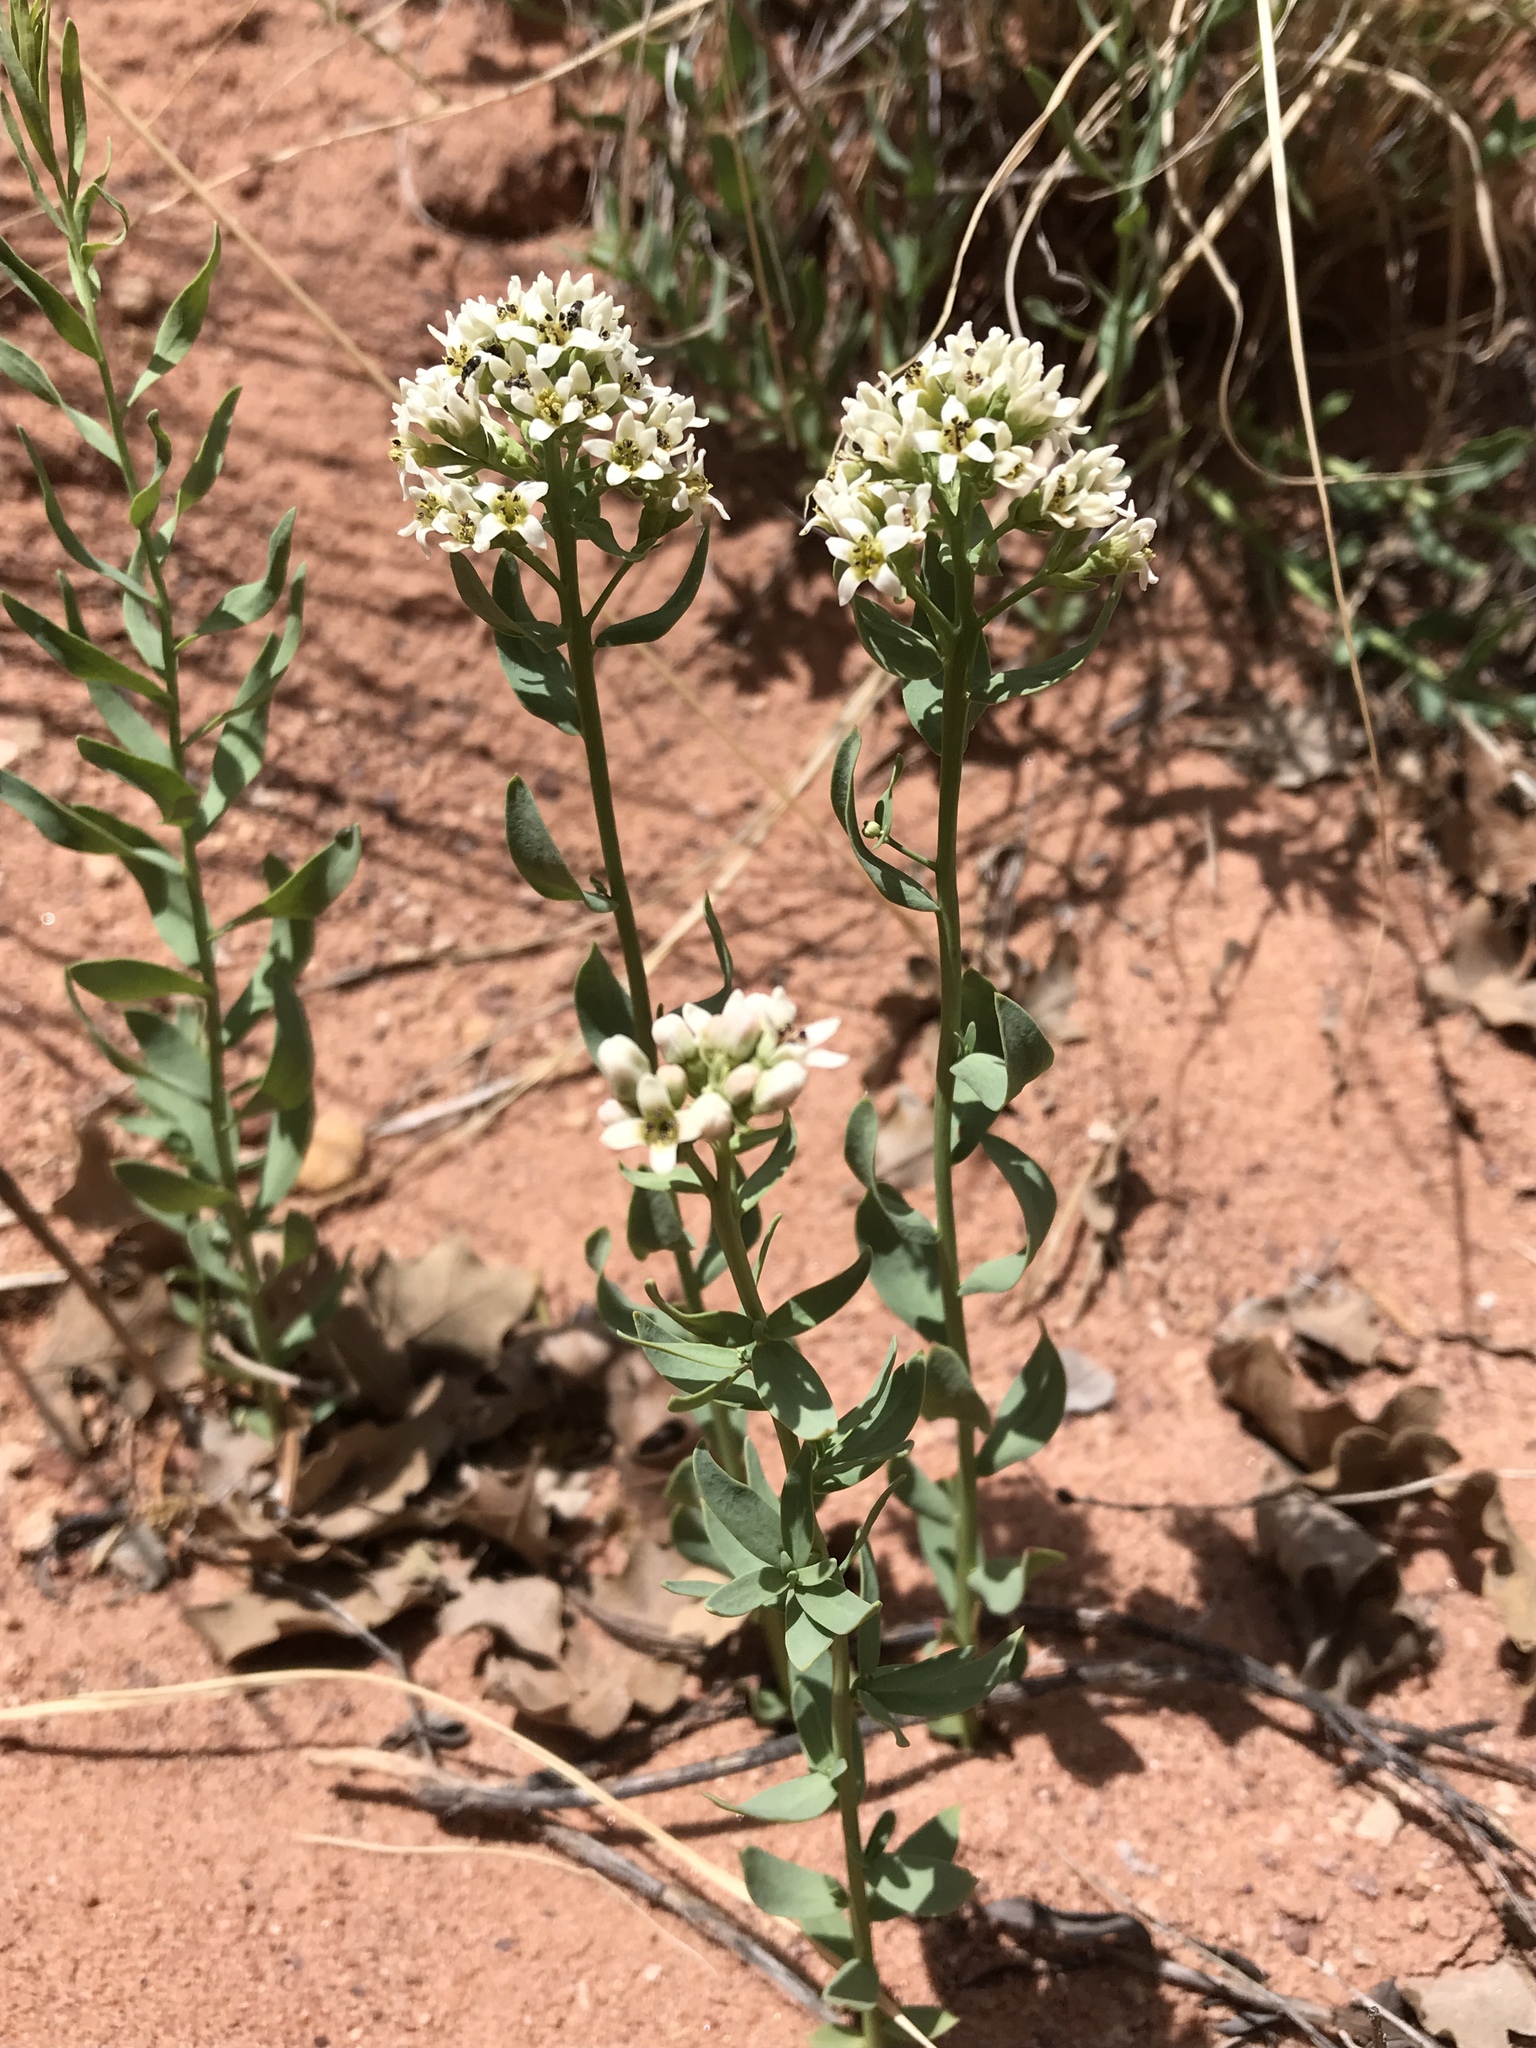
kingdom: Plantae
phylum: Tracheophyta
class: Magnoliopsida
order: Santalales
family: Comandraceae
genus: Comandra
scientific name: Comandra umbellata
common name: Bastard toadflax
